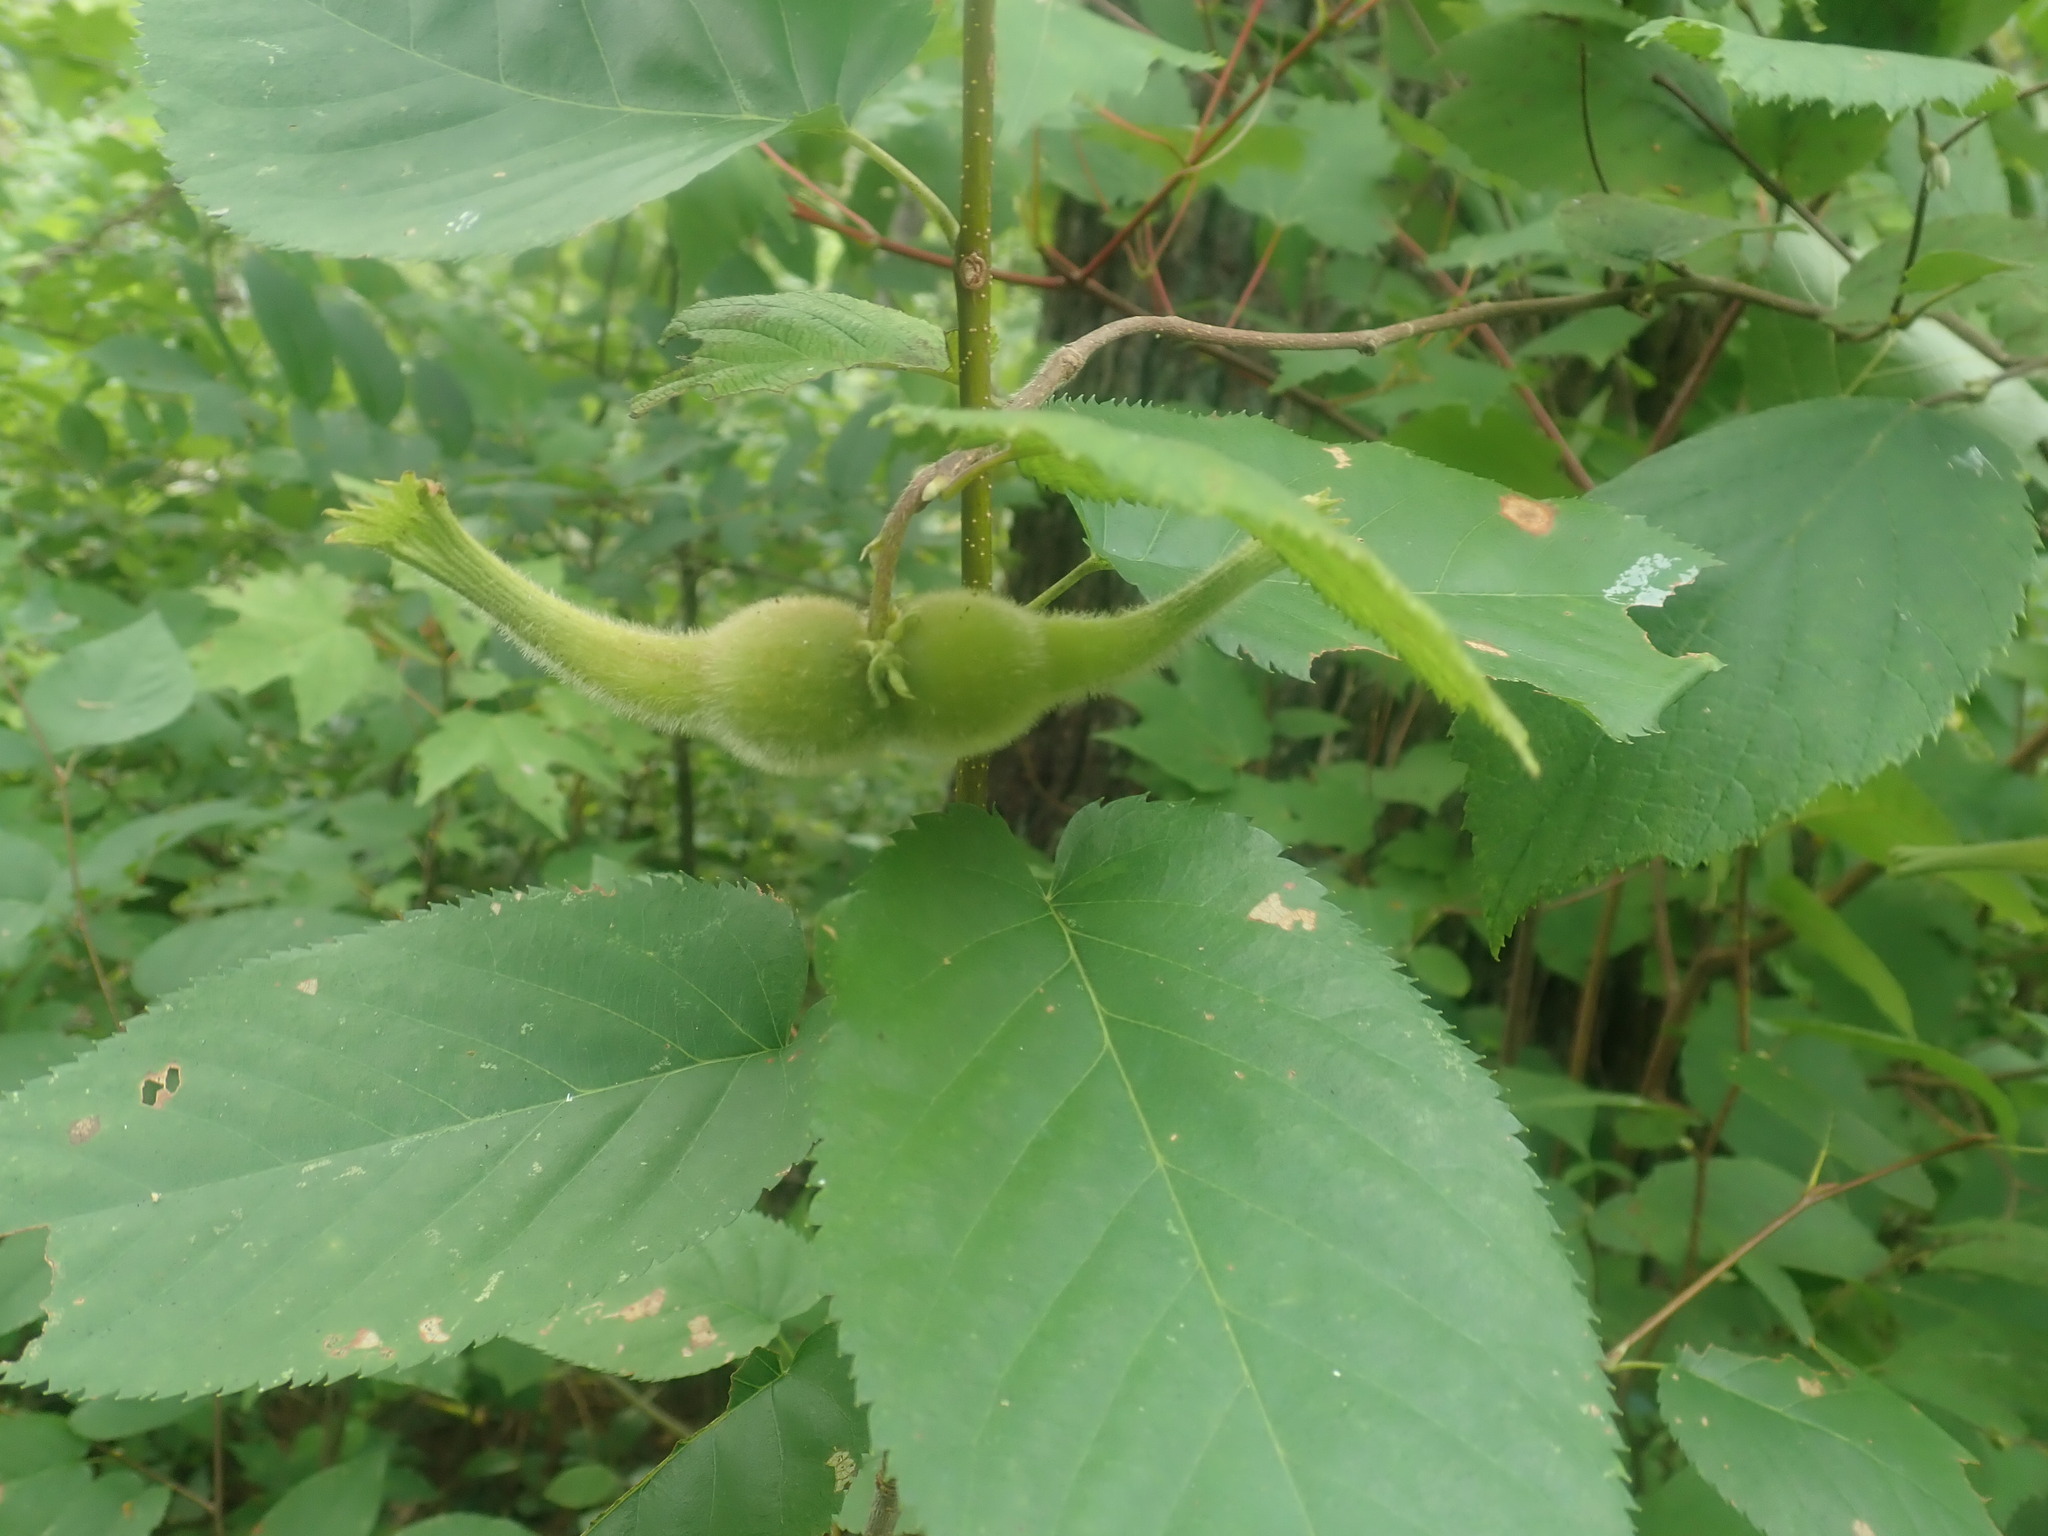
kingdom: Plantae
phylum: Tracheophyta
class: Magnoliopsida
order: Fagales
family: Betulaceae
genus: Corylus
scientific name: Corylus cornuta
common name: Beaked hazel
